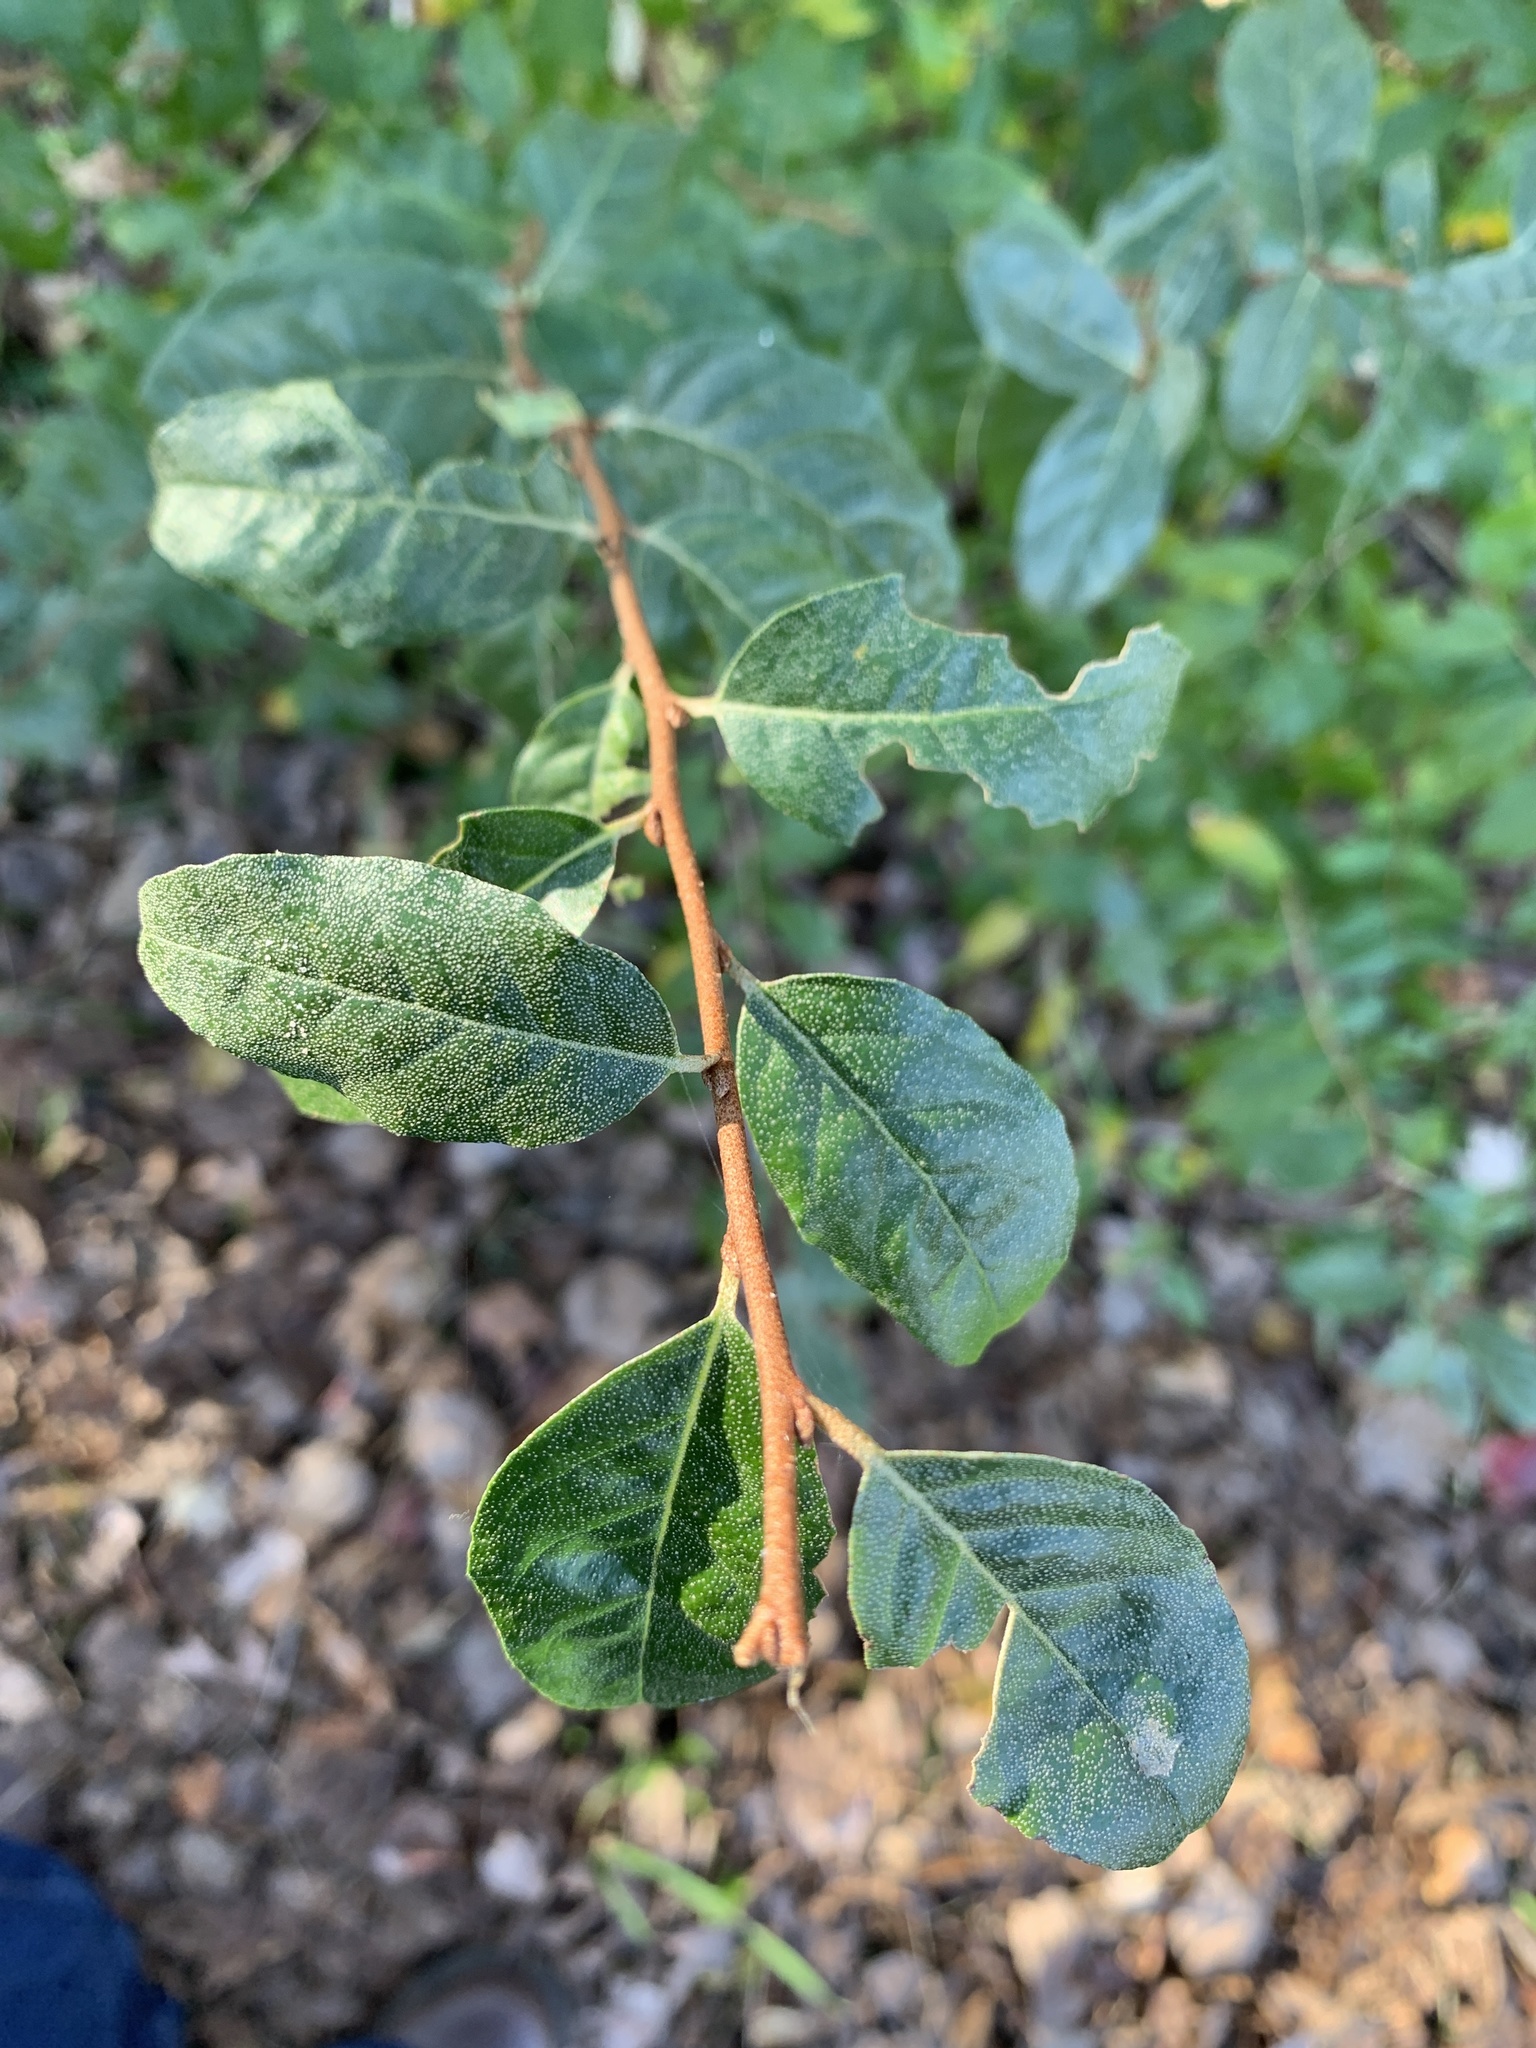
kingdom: Plantae
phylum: Tracheophyta
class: Magnoliopsida
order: Rosales
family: Elaeagnaceae
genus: Elaeagnus
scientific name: Elaeagnus umbellata
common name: Autumn olive
